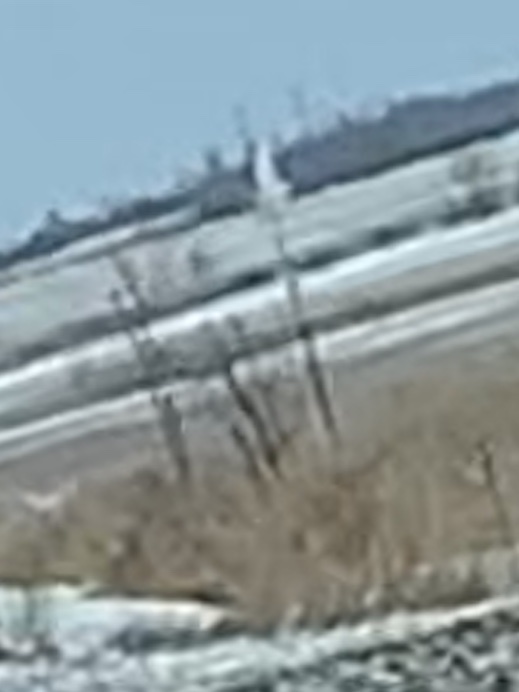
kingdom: Animalia
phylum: Chordata
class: Aves
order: Strigiformes
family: Strigidae
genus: Bubo
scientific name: Bubo scandiacus
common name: Snowy owl
